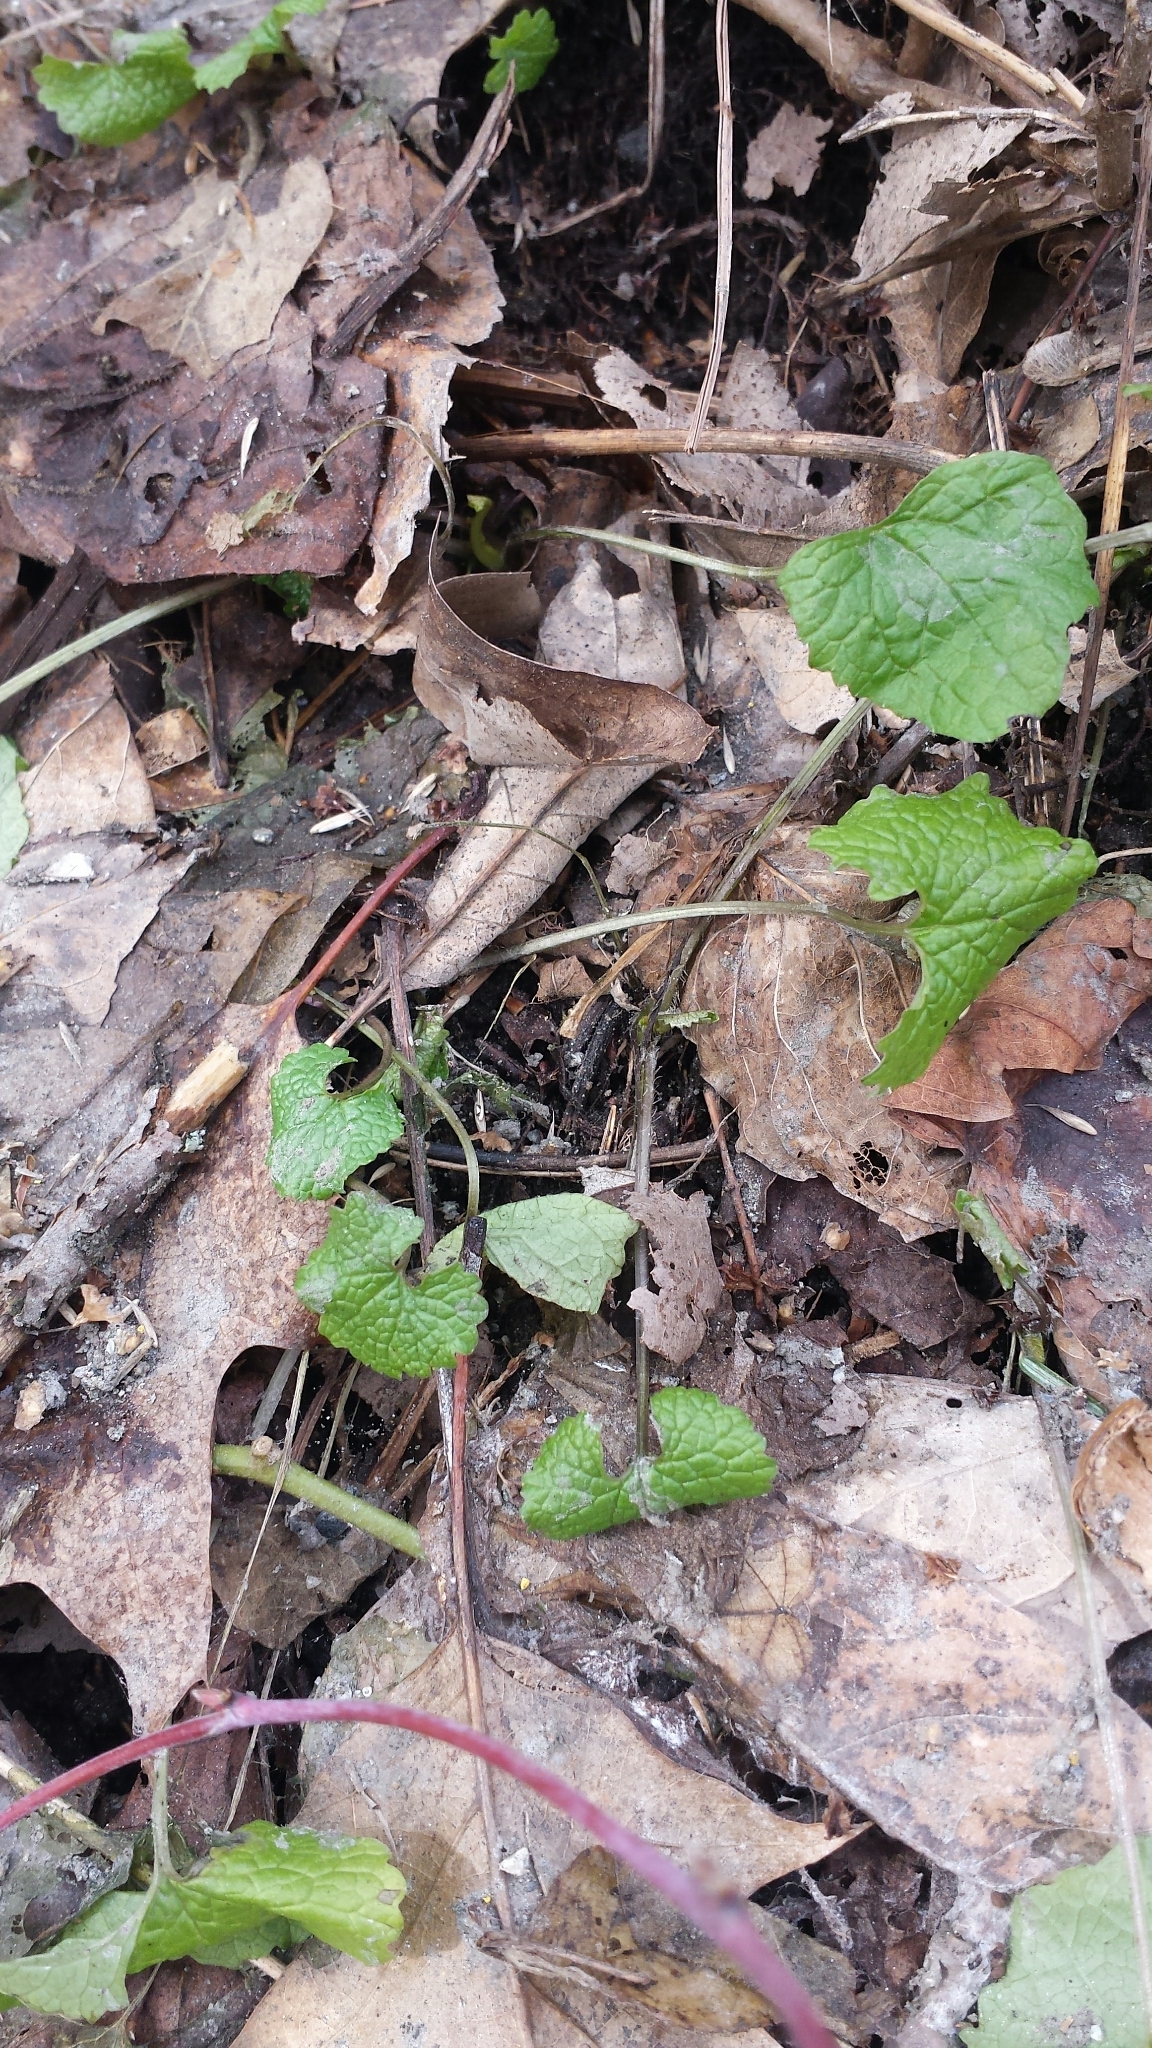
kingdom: Plantae
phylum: Tracheophyta
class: Magnoliopsida
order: Brassicales
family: Brassicaceae
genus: Alliaria
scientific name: Alliaria petiolata
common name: Garlic mustard
